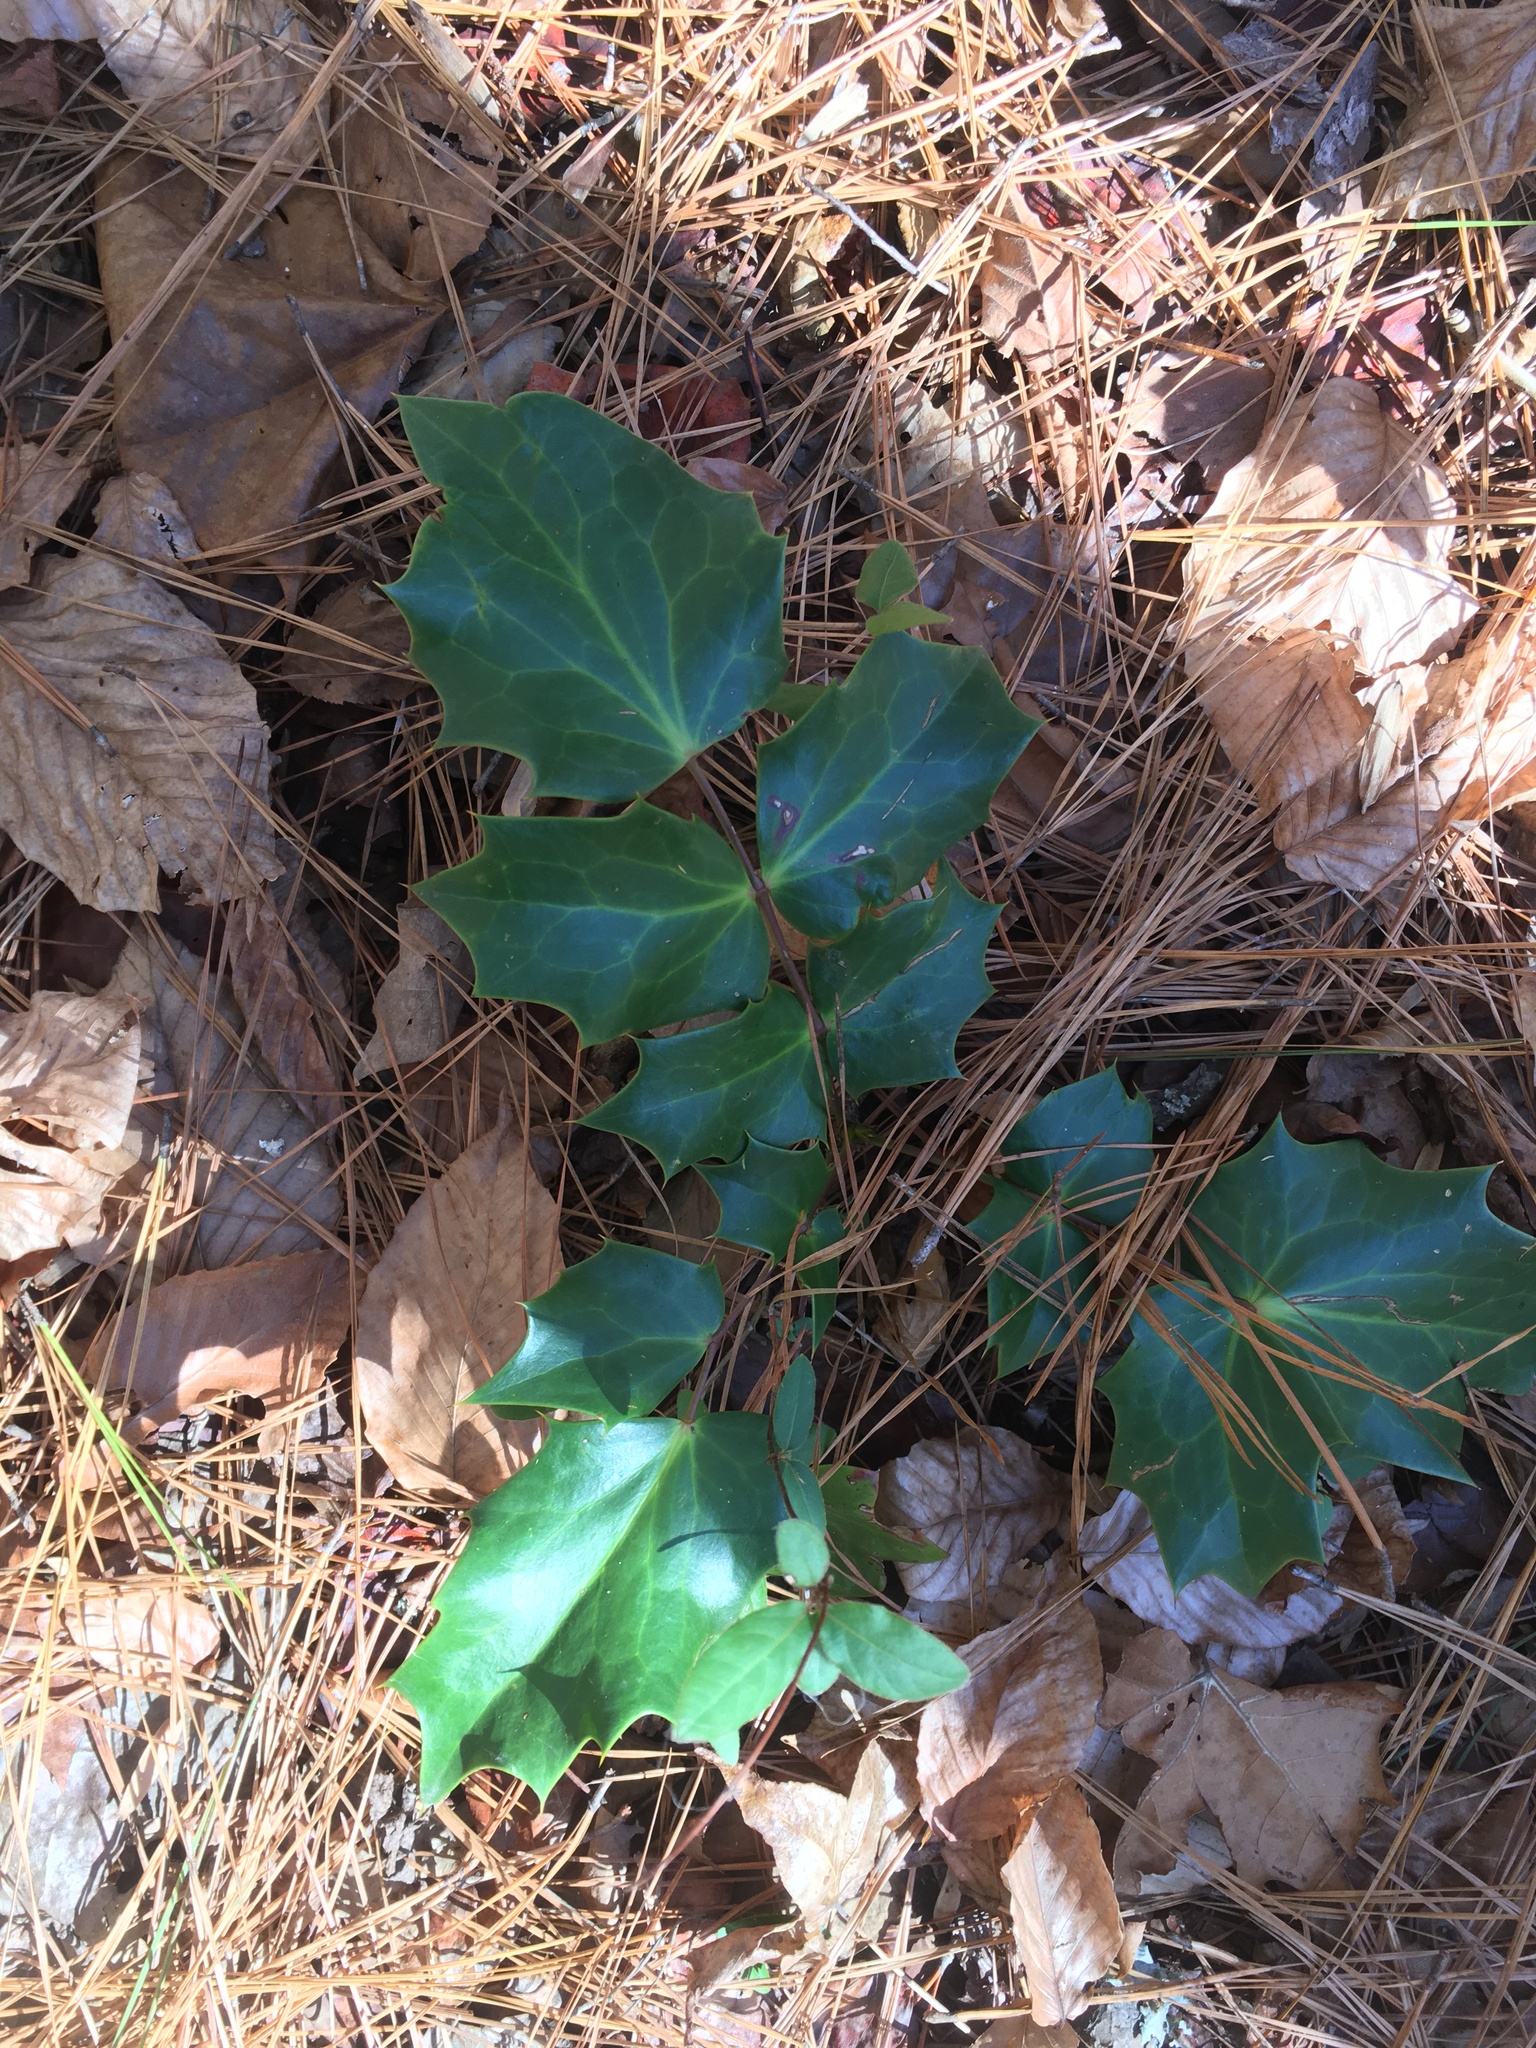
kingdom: Plantae
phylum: Tracheophyta
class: Magnoliopsida
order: Ranunculales
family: Berberidaceae
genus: Mahonia
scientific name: Mahonia bealei
